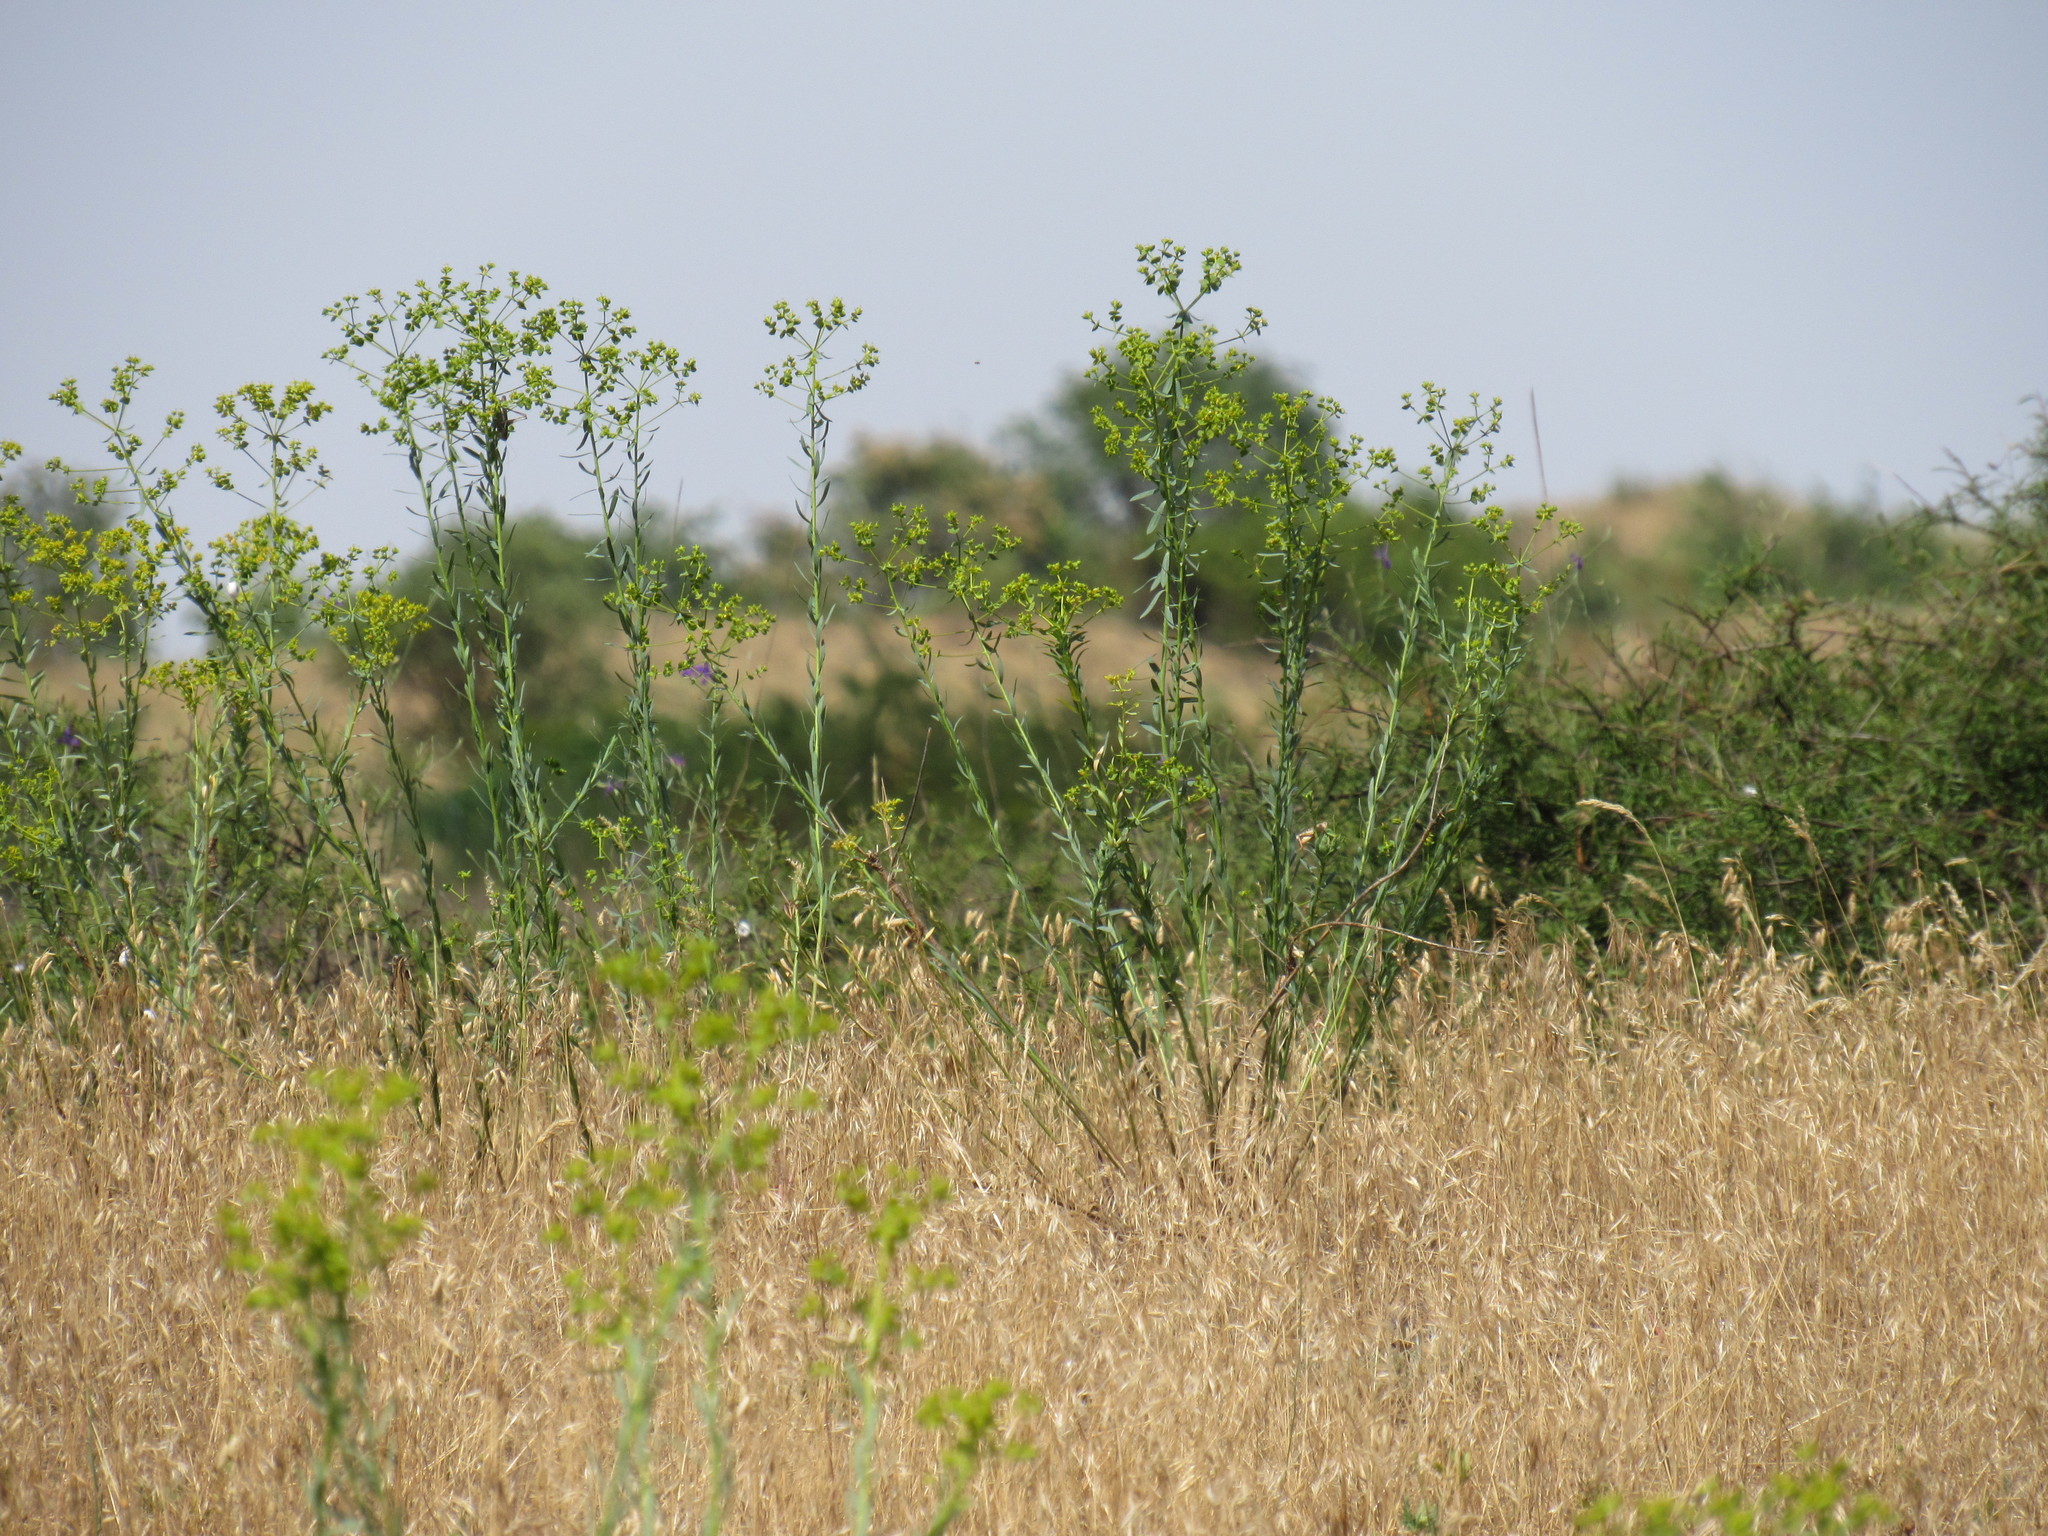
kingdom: Plantae
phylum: Tracheophyta
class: Magnoliopsida
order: Malpighiales
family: Euphorbiaceae
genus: Euphorbia
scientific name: Euphorbia seguieriana
